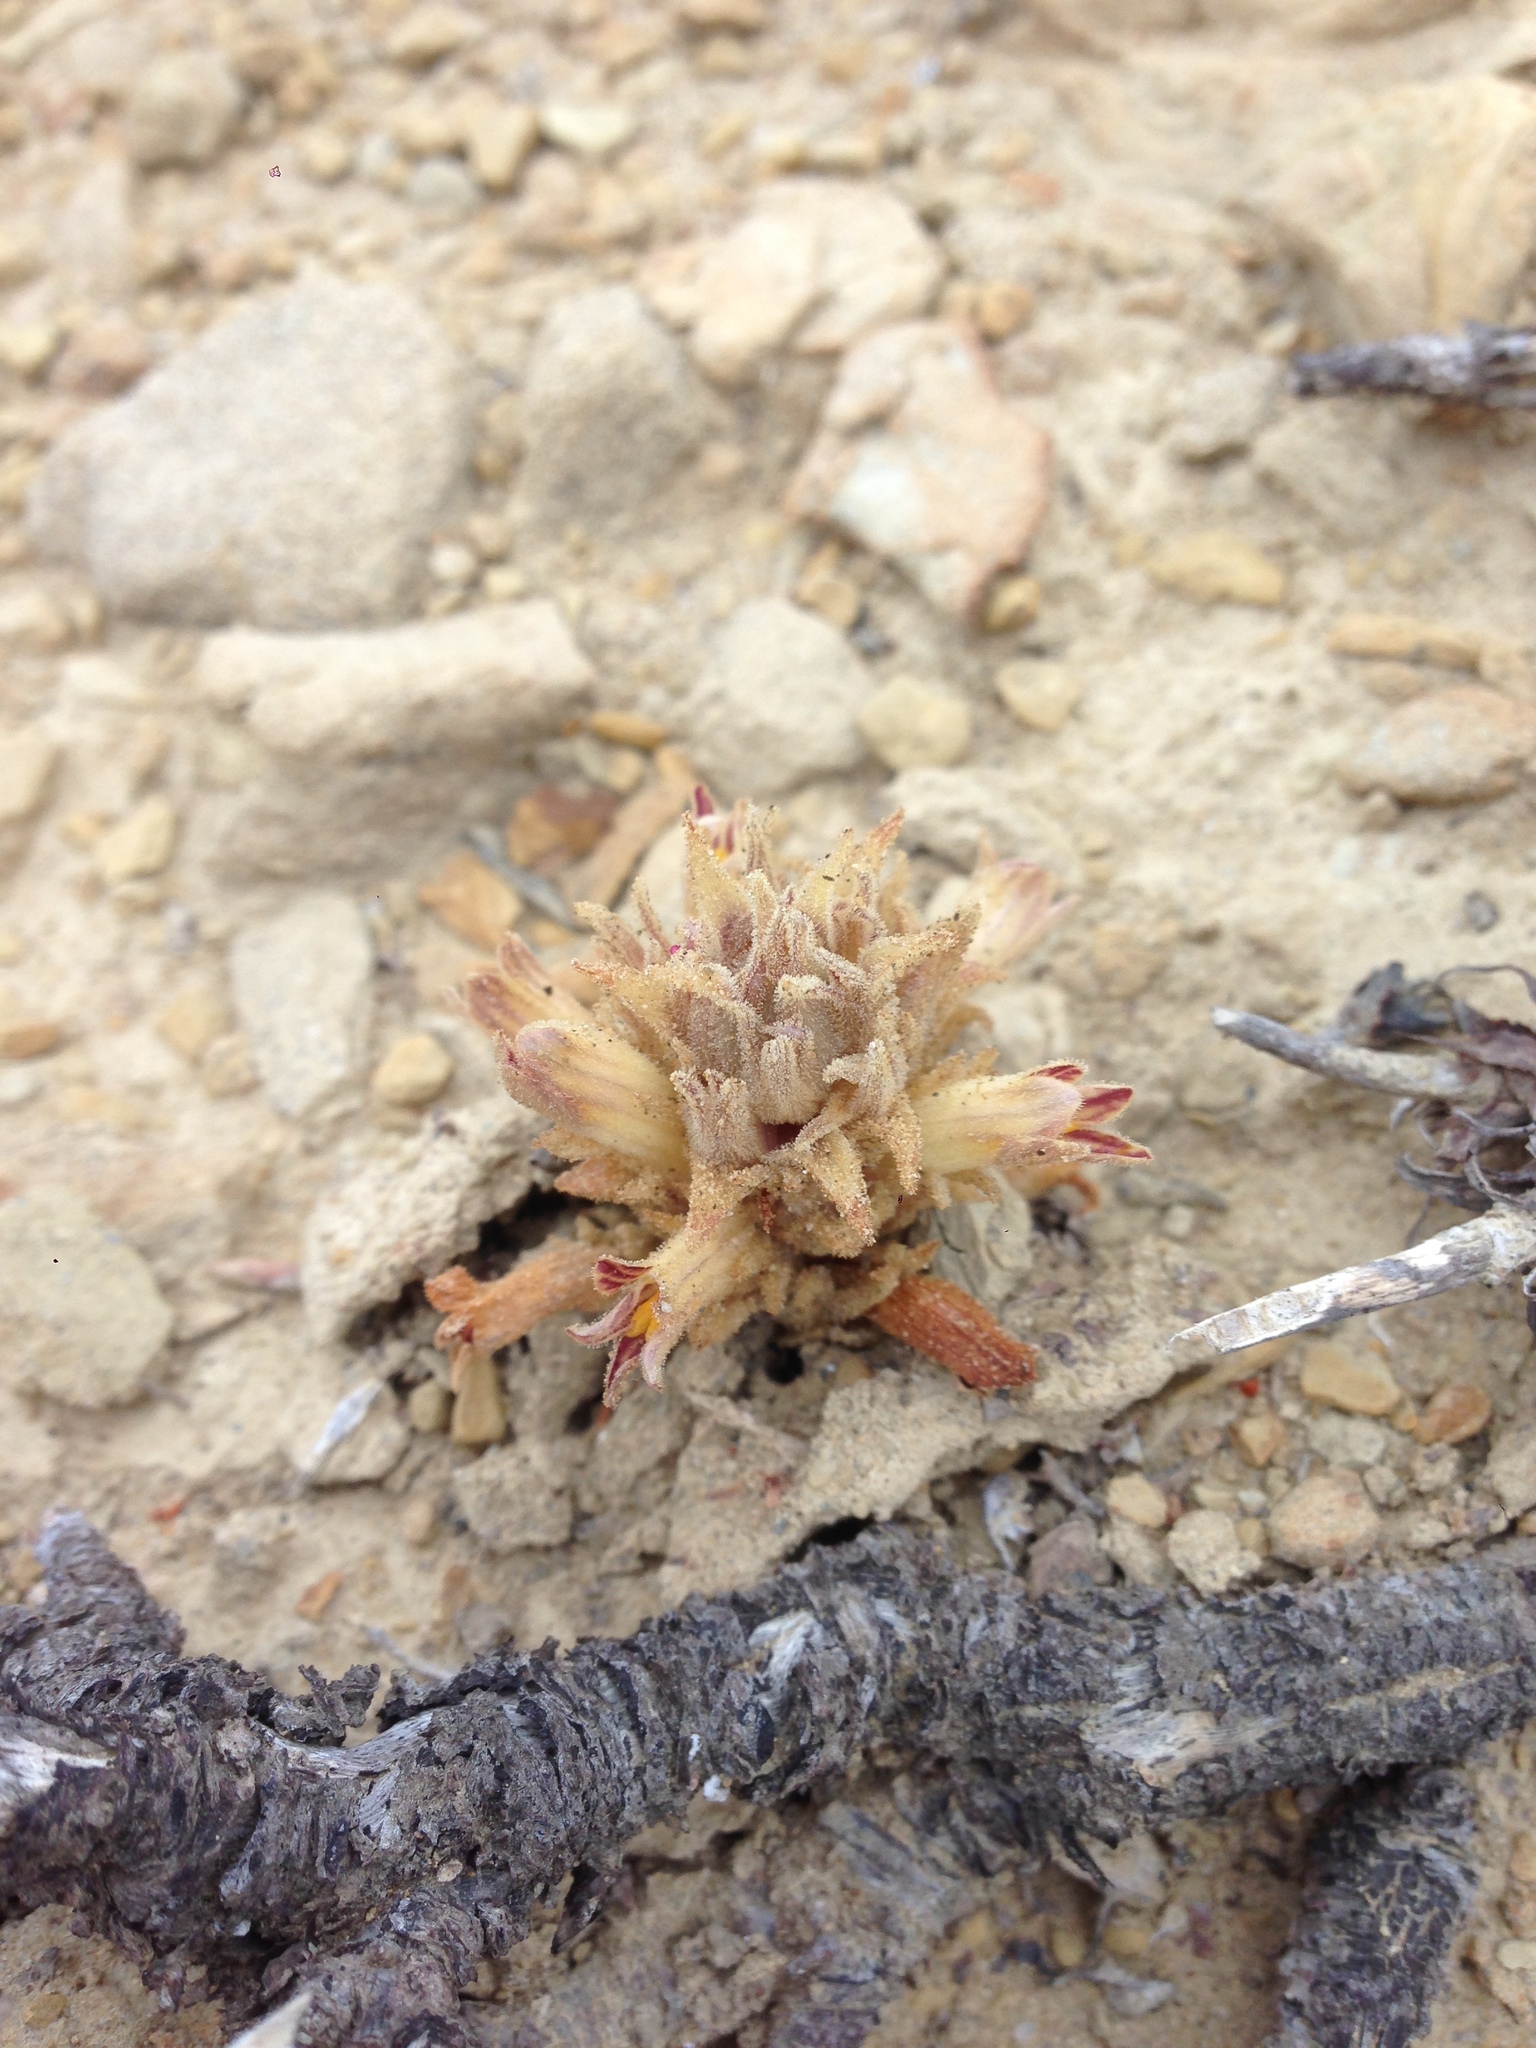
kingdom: Plantae
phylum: Tracheophyta
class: Magnoliopsida
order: Lamiales
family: Orobanchaceae
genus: Aphyllon
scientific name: Aphyllon parishii
